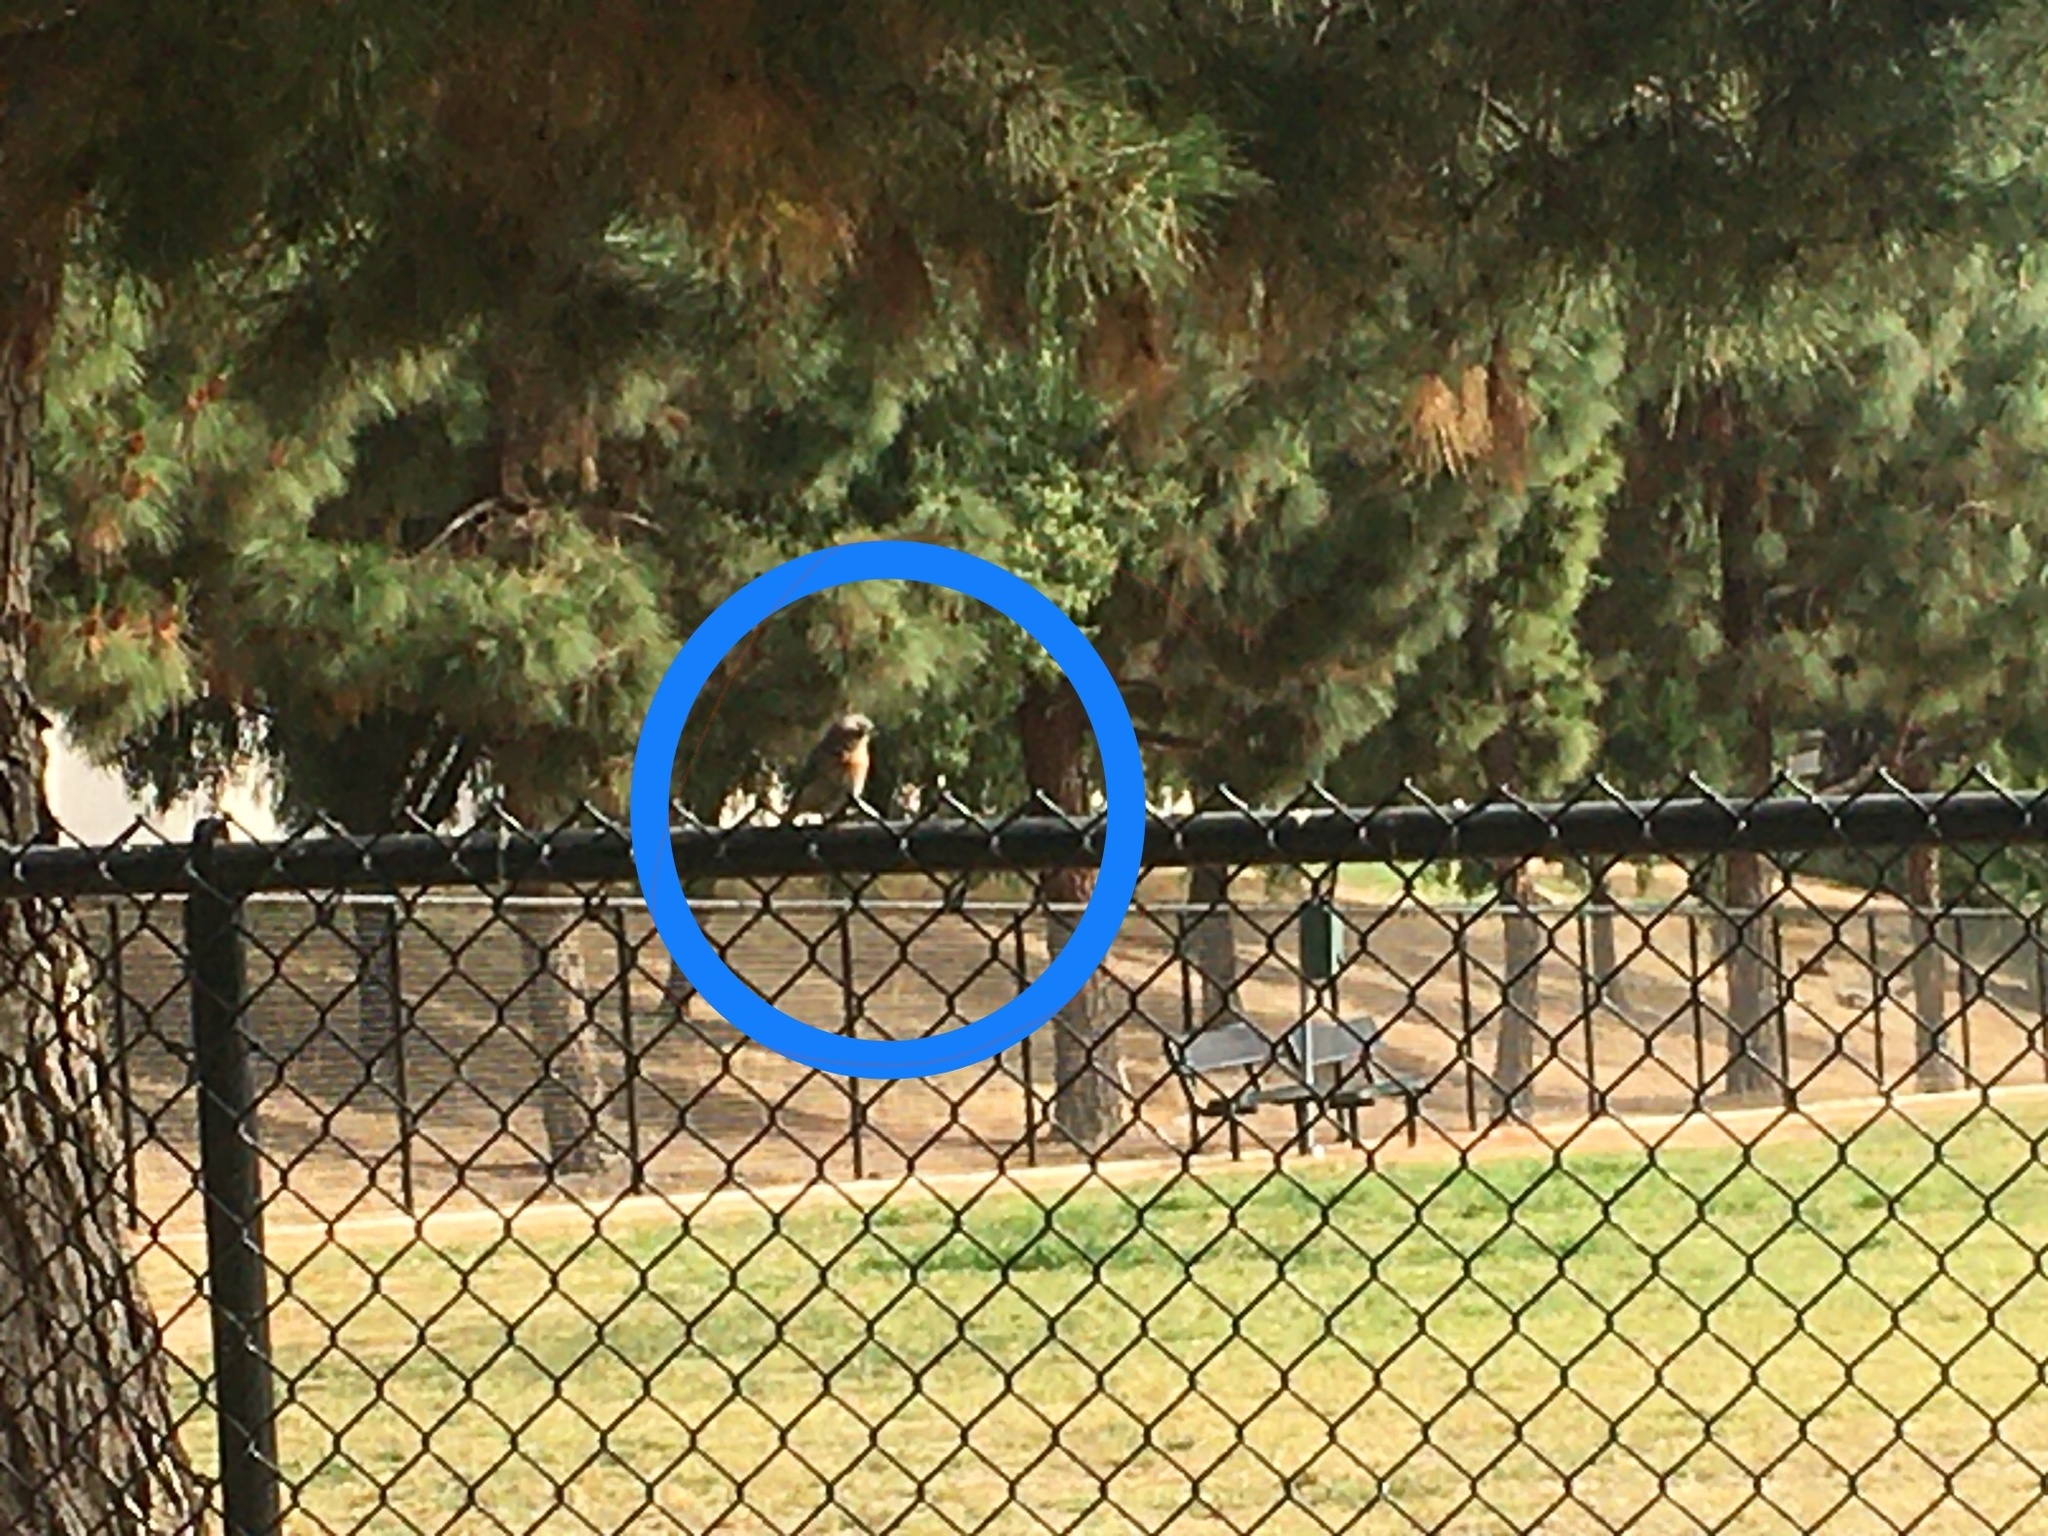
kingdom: Animalia
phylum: Chordata
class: Aves
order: Passeriformes
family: Turdidae
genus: Sialia
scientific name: Sialia mexicana
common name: Western bluebird
